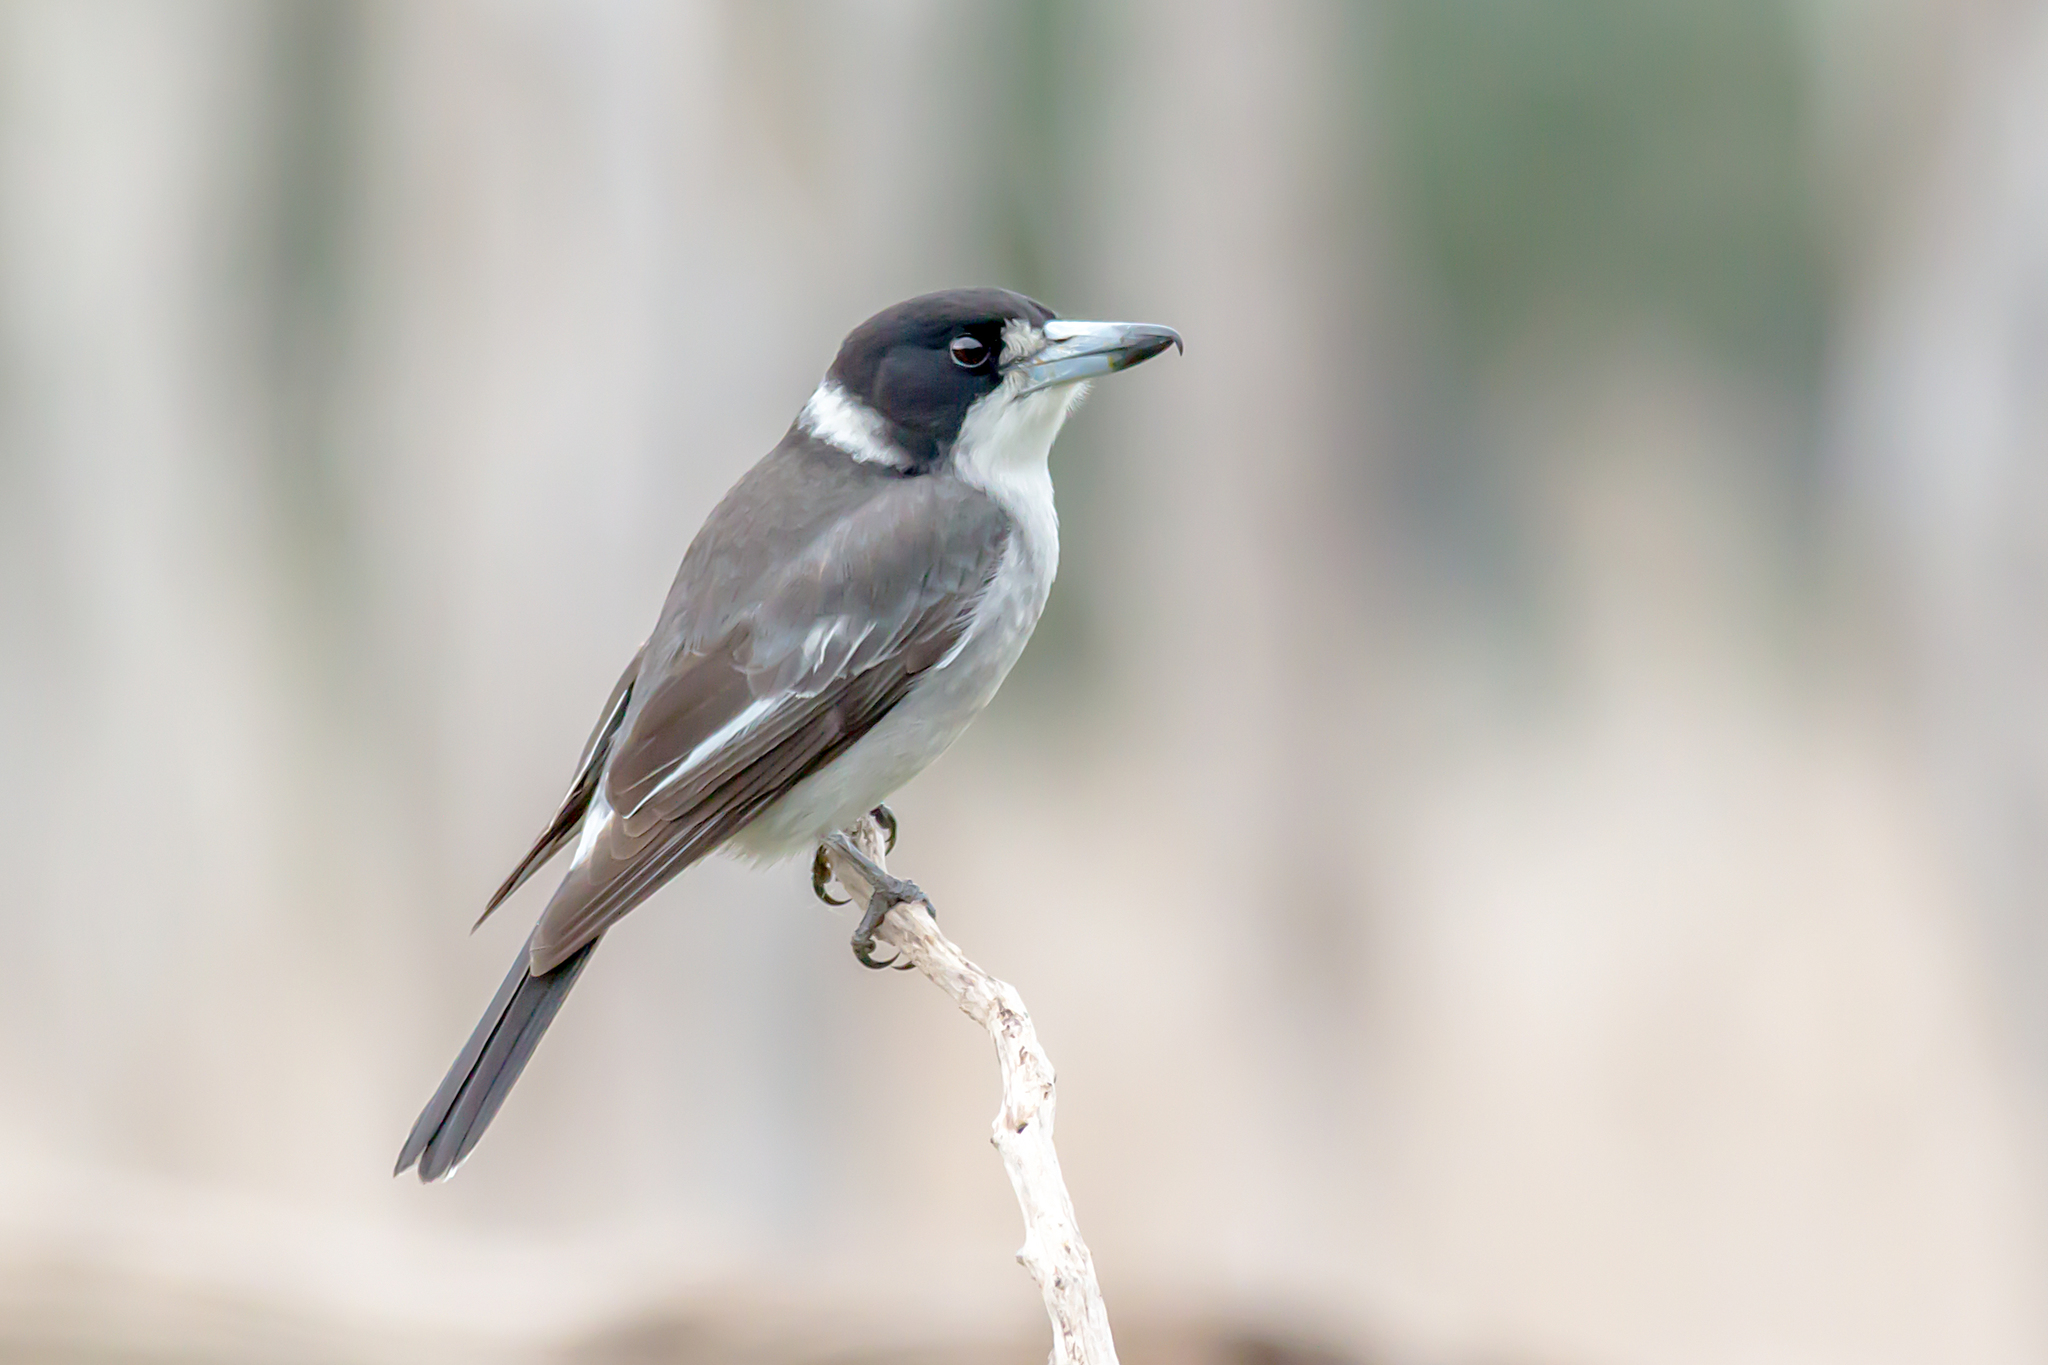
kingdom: Animalia
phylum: Chordata
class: Aves
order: Passeriformes
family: Cracticidae
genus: Cracticus
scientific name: Cracticus torquatus
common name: Grey butcherbird
